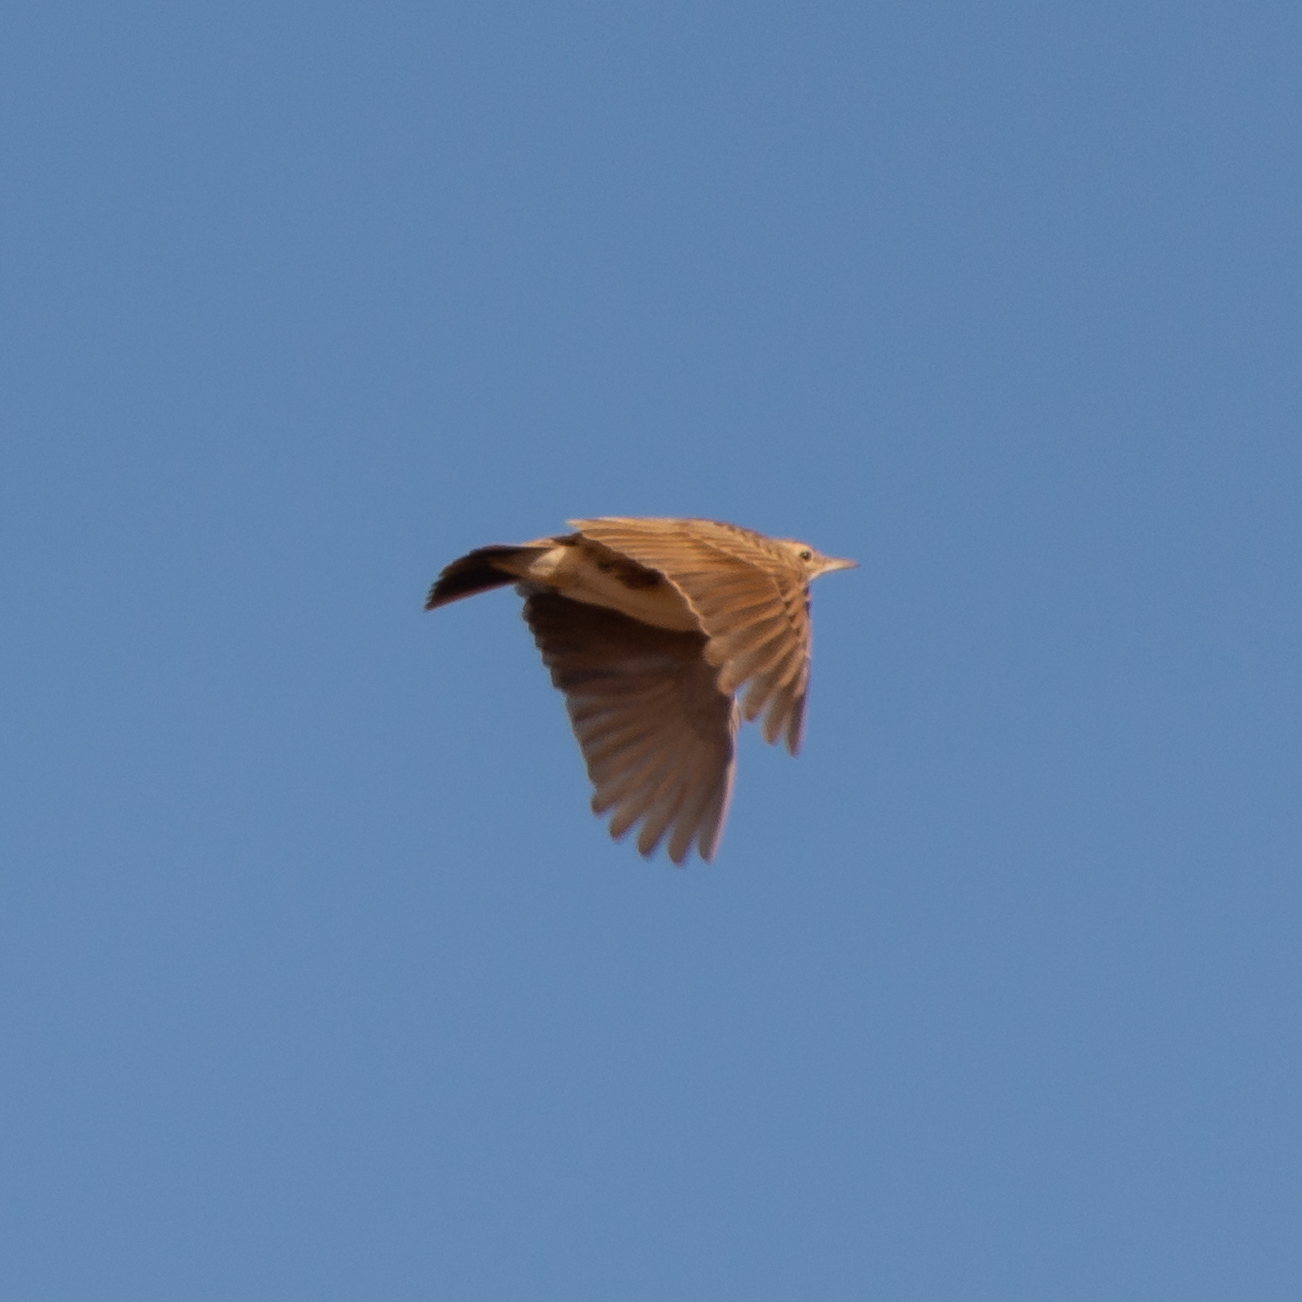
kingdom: Animalia
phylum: Chordata
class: Aves
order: Passeriformes
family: Alaudidae
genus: Galerida
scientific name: Galerida cristata
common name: Crested lark
